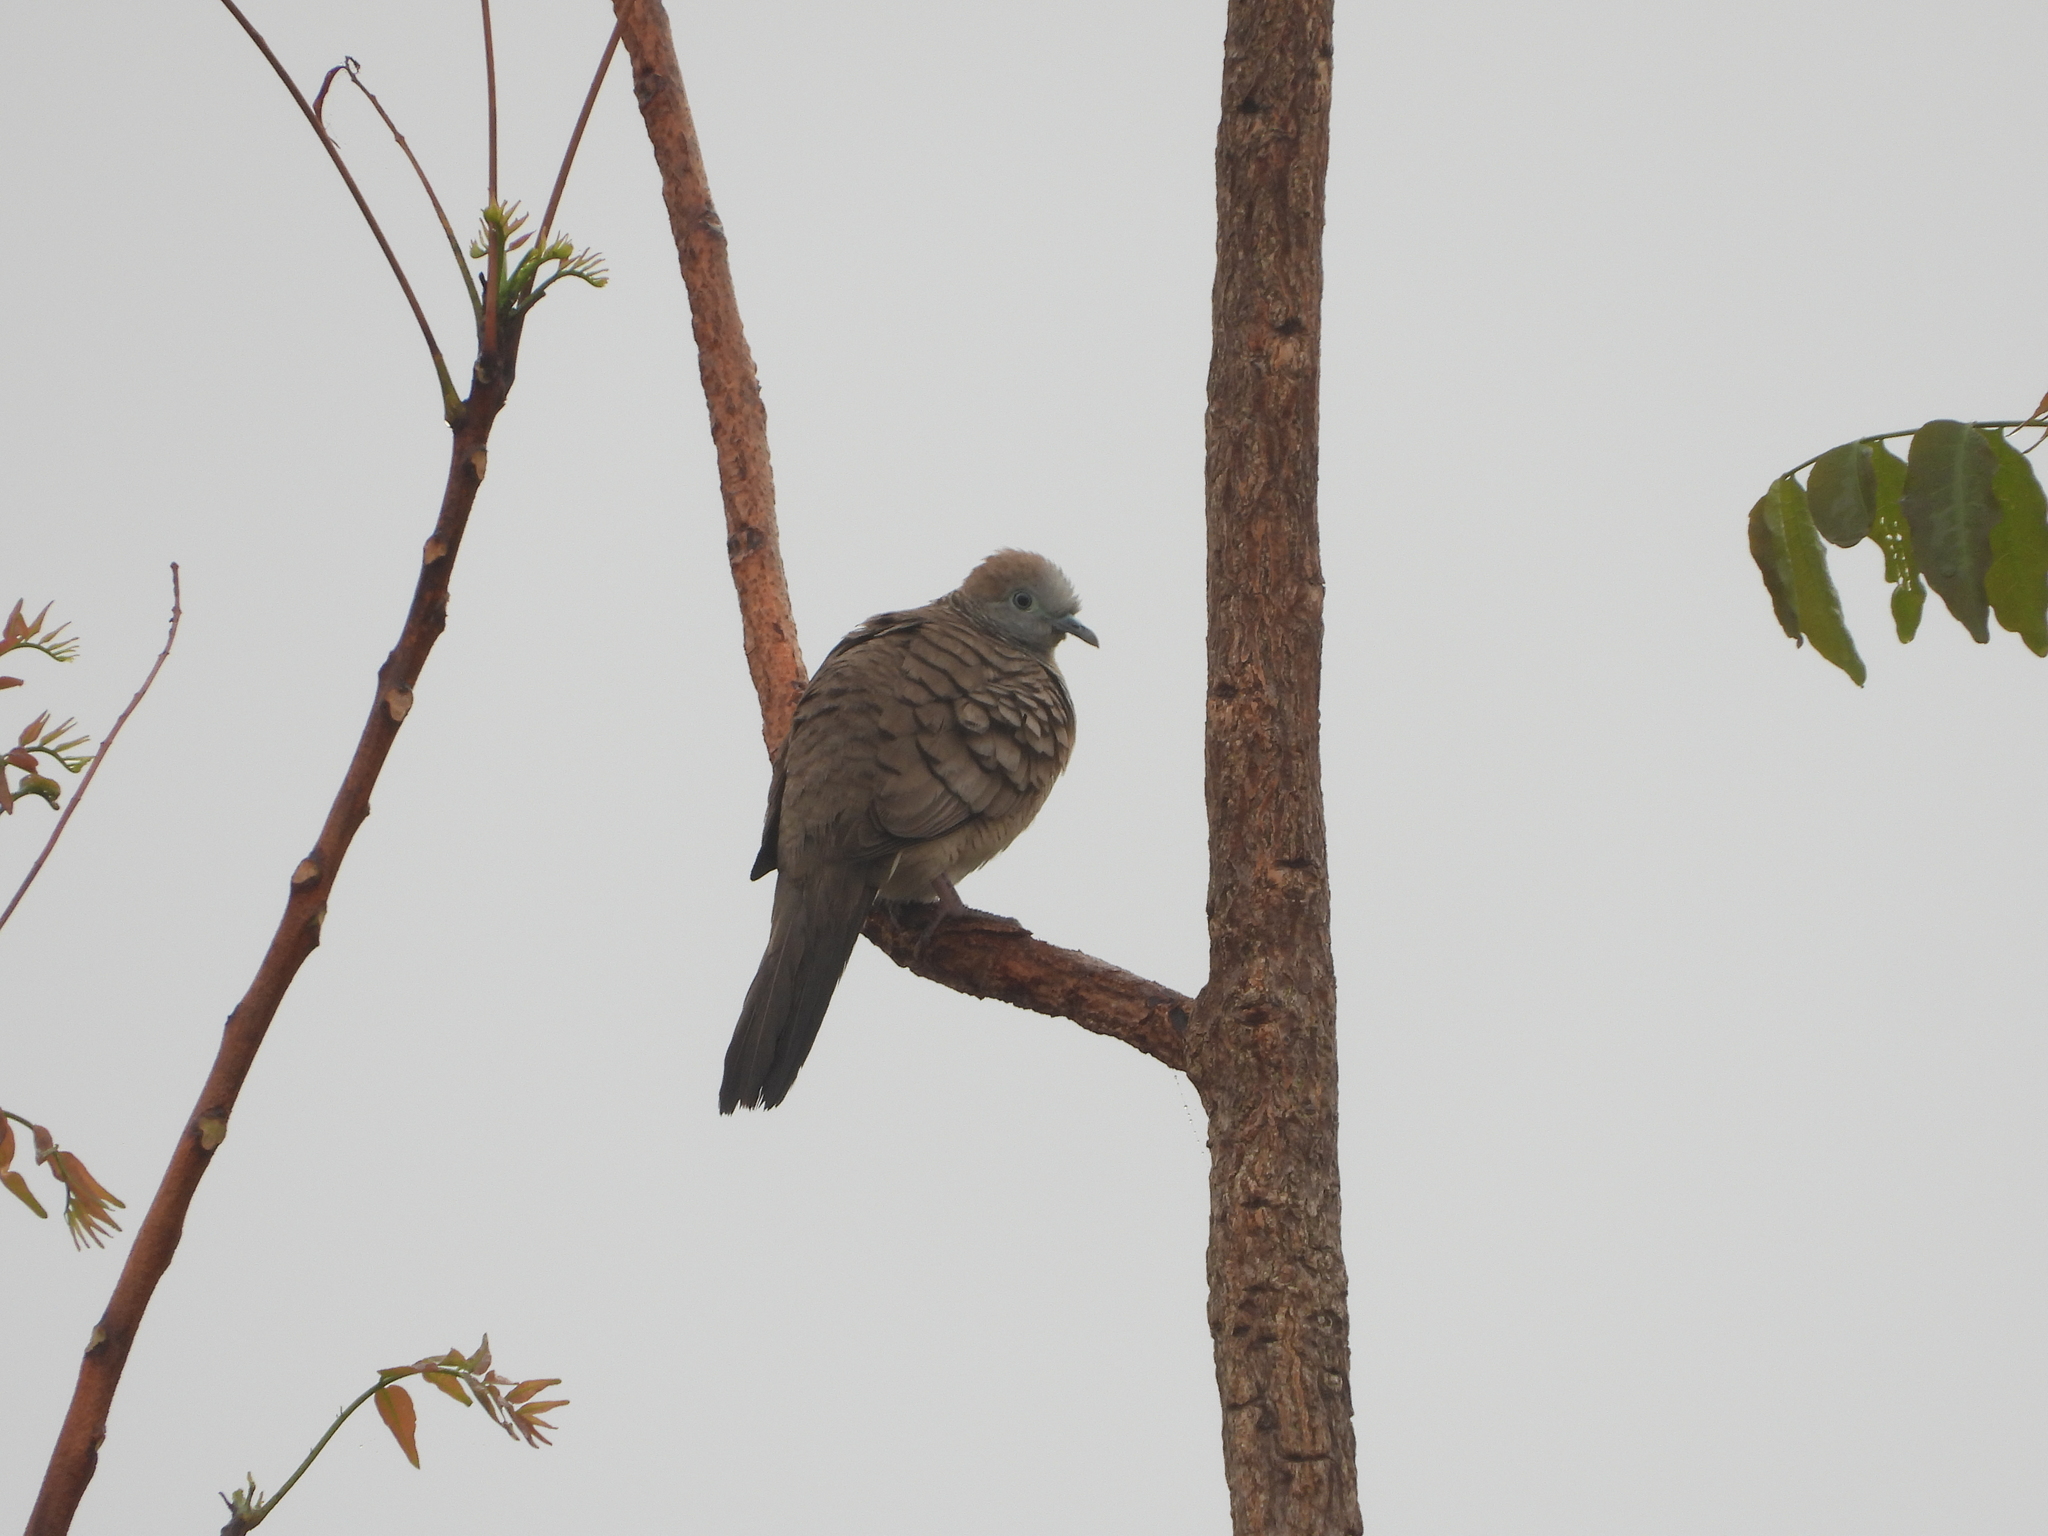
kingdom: Animalia
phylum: Chordata
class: Aves
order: Columbiformes
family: Columbidae
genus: Geopelia
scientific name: Geopelia striata
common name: Zebra dove
